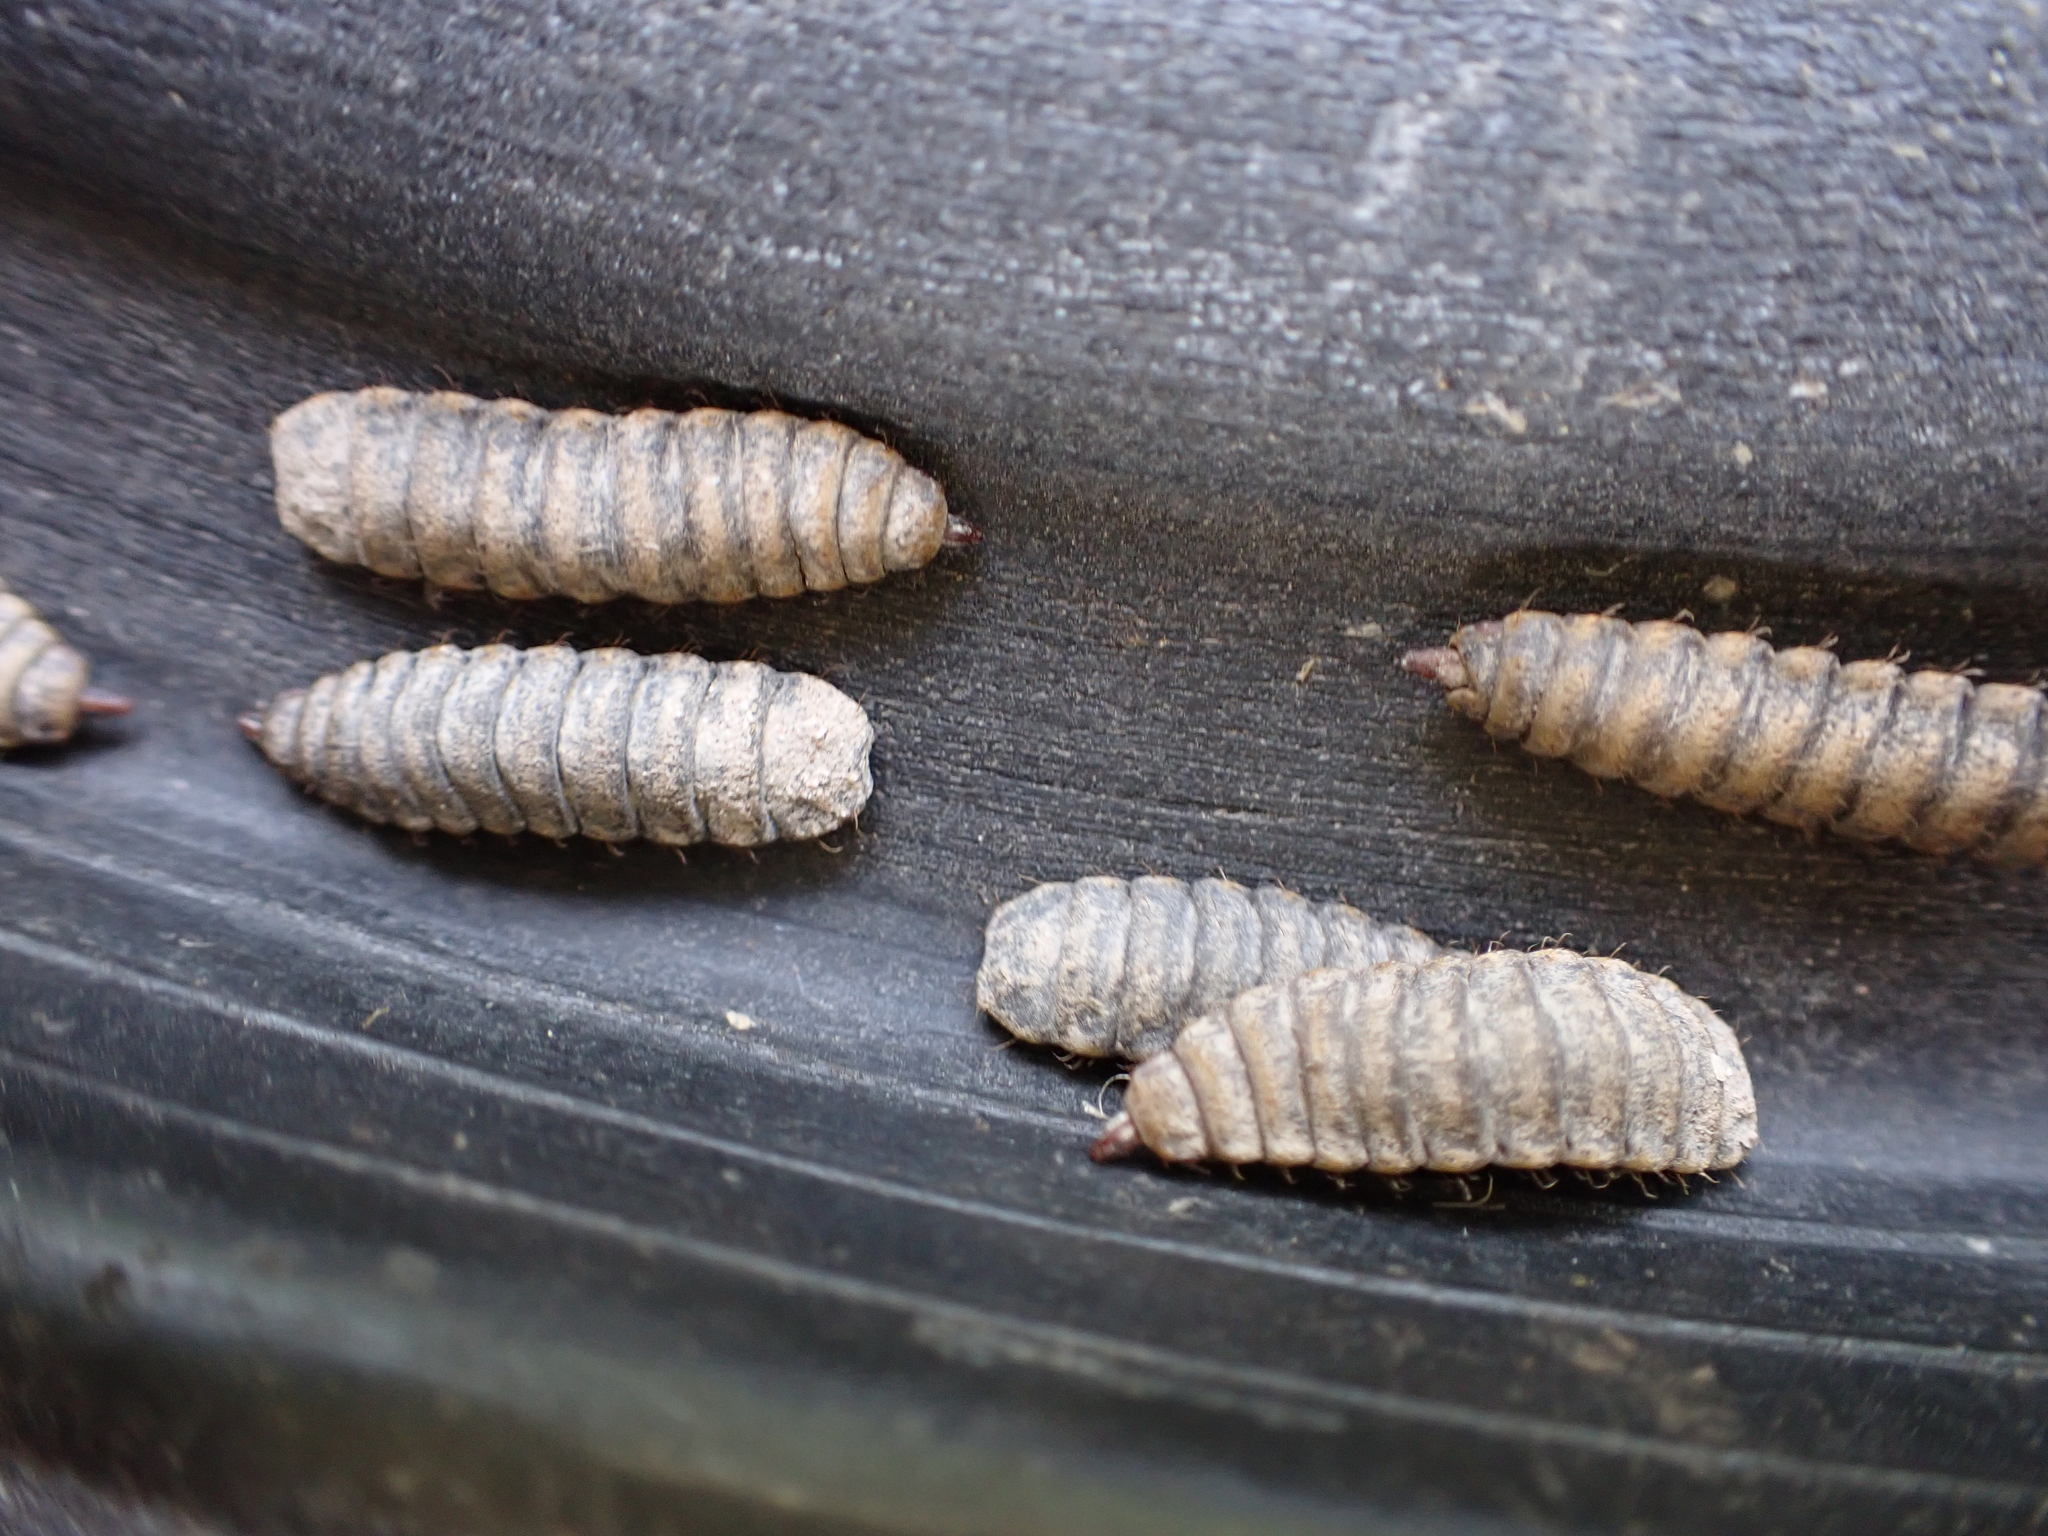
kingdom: Animalia
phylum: Arthropoda
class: Insecta
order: Diptera
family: Stratiomyidae
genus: Hermetia
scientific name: Hermetia illucens
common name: Black soldier fly
